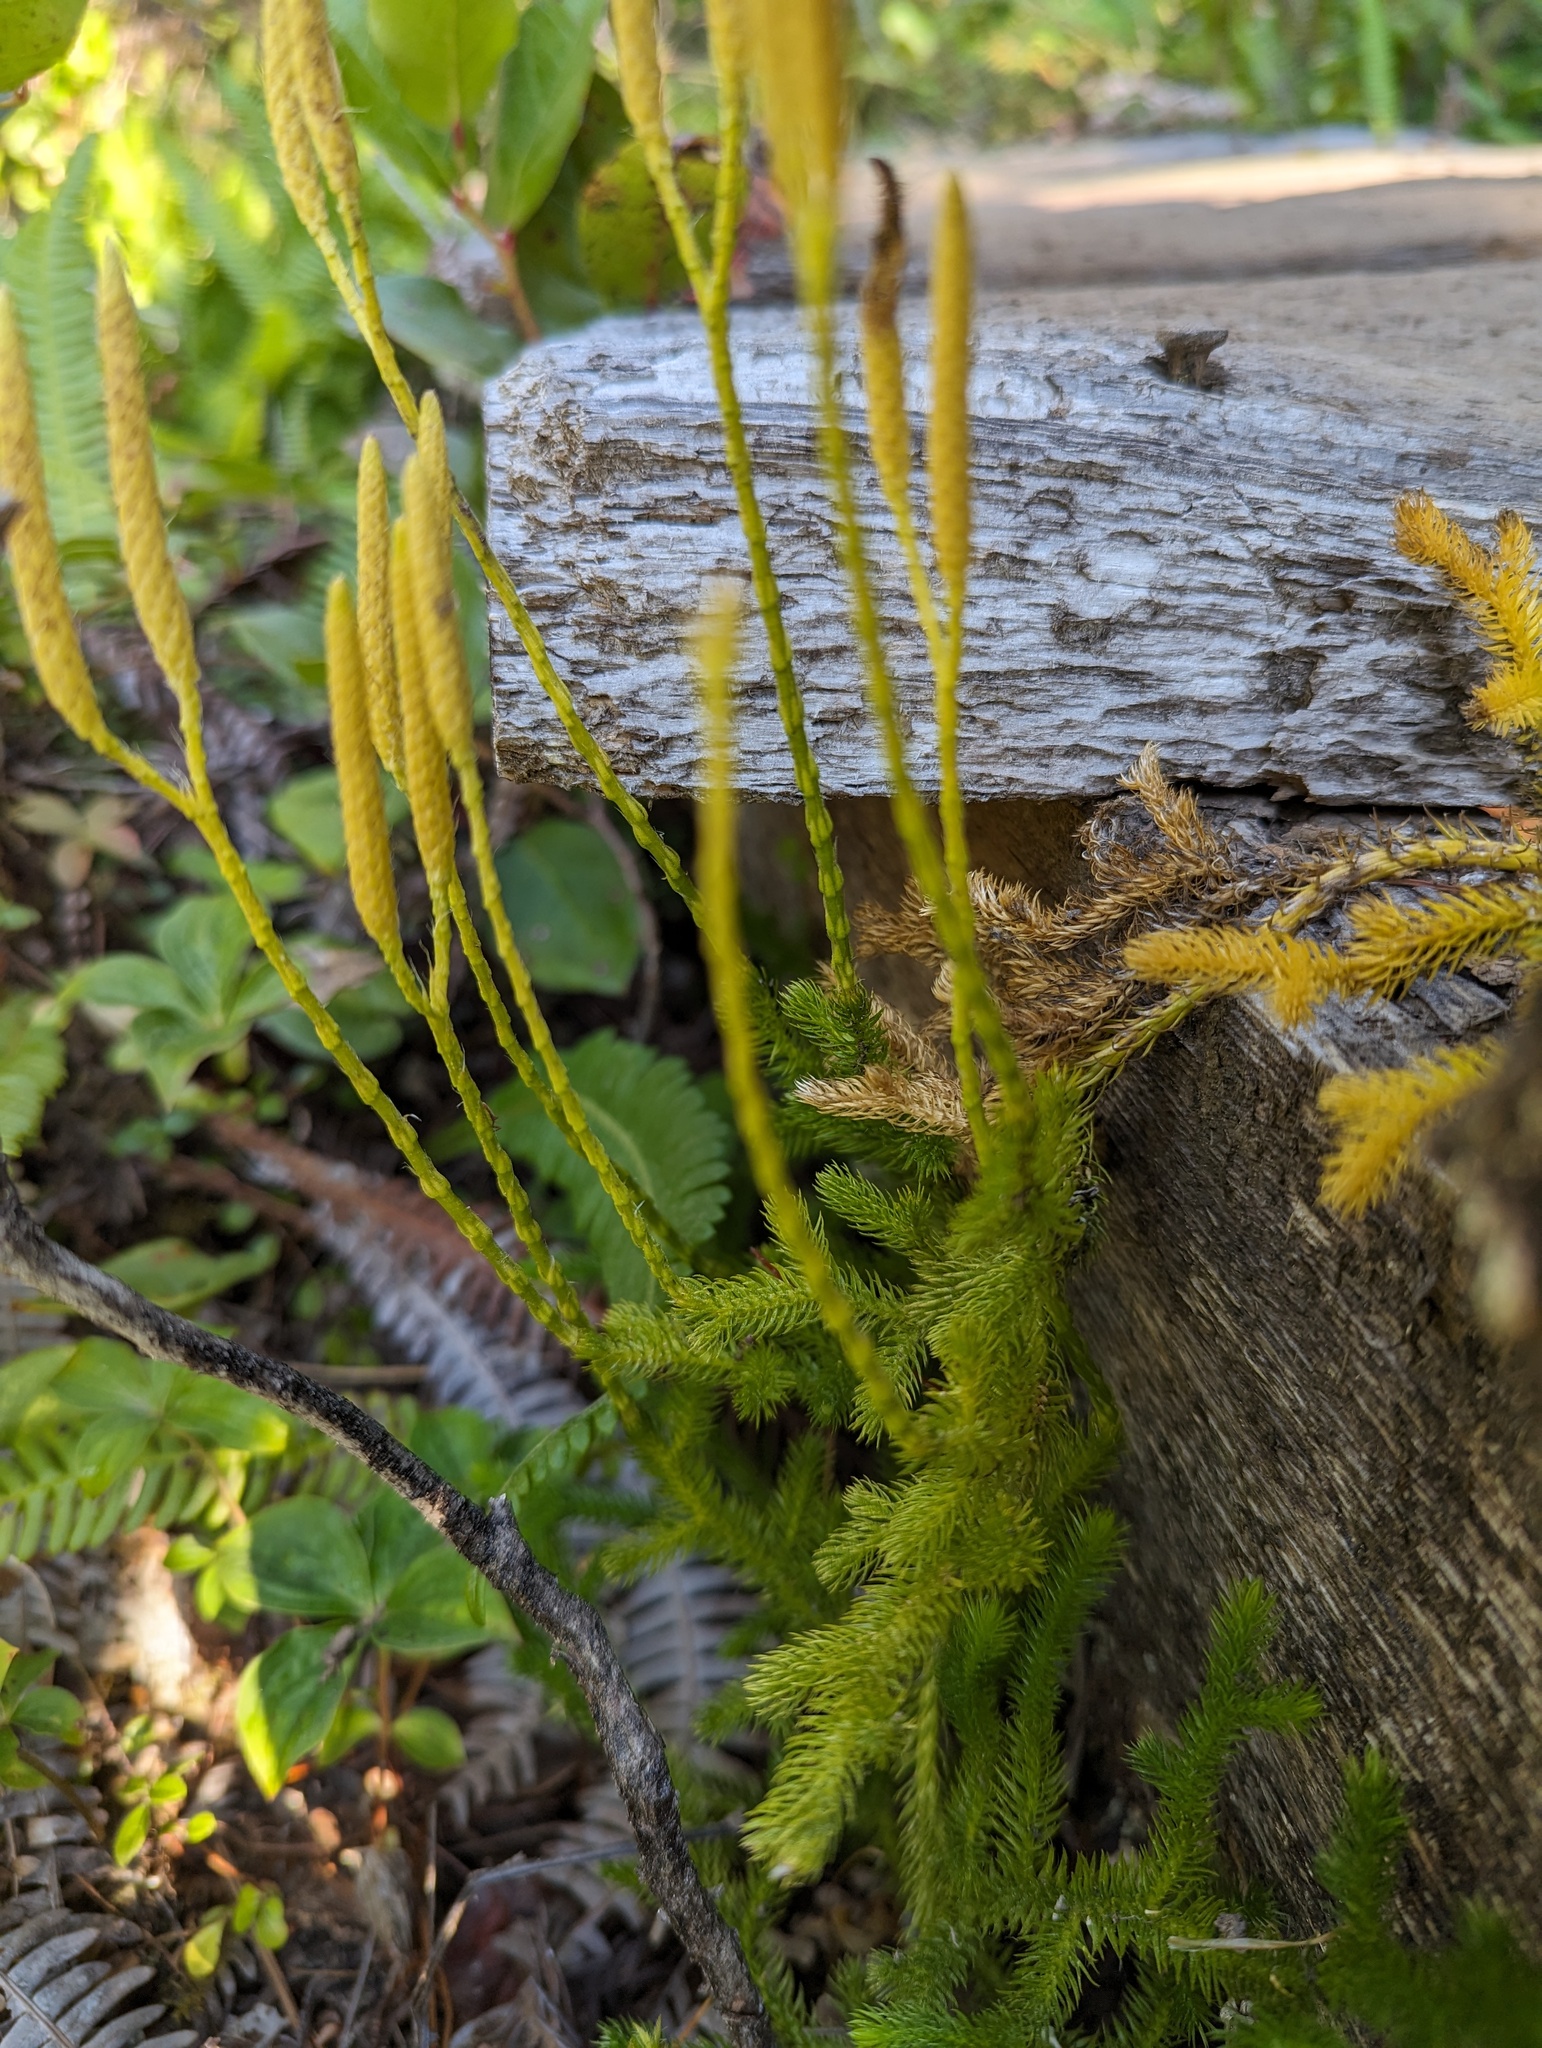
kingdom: Plantae
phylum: Tracheophyta
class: Lycopodiopsida
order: Lycopodiales
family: Lycopodiaceae
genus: Lycopodium
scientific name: Lycopodium clavatum
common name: Stag's-horn clubmoss
